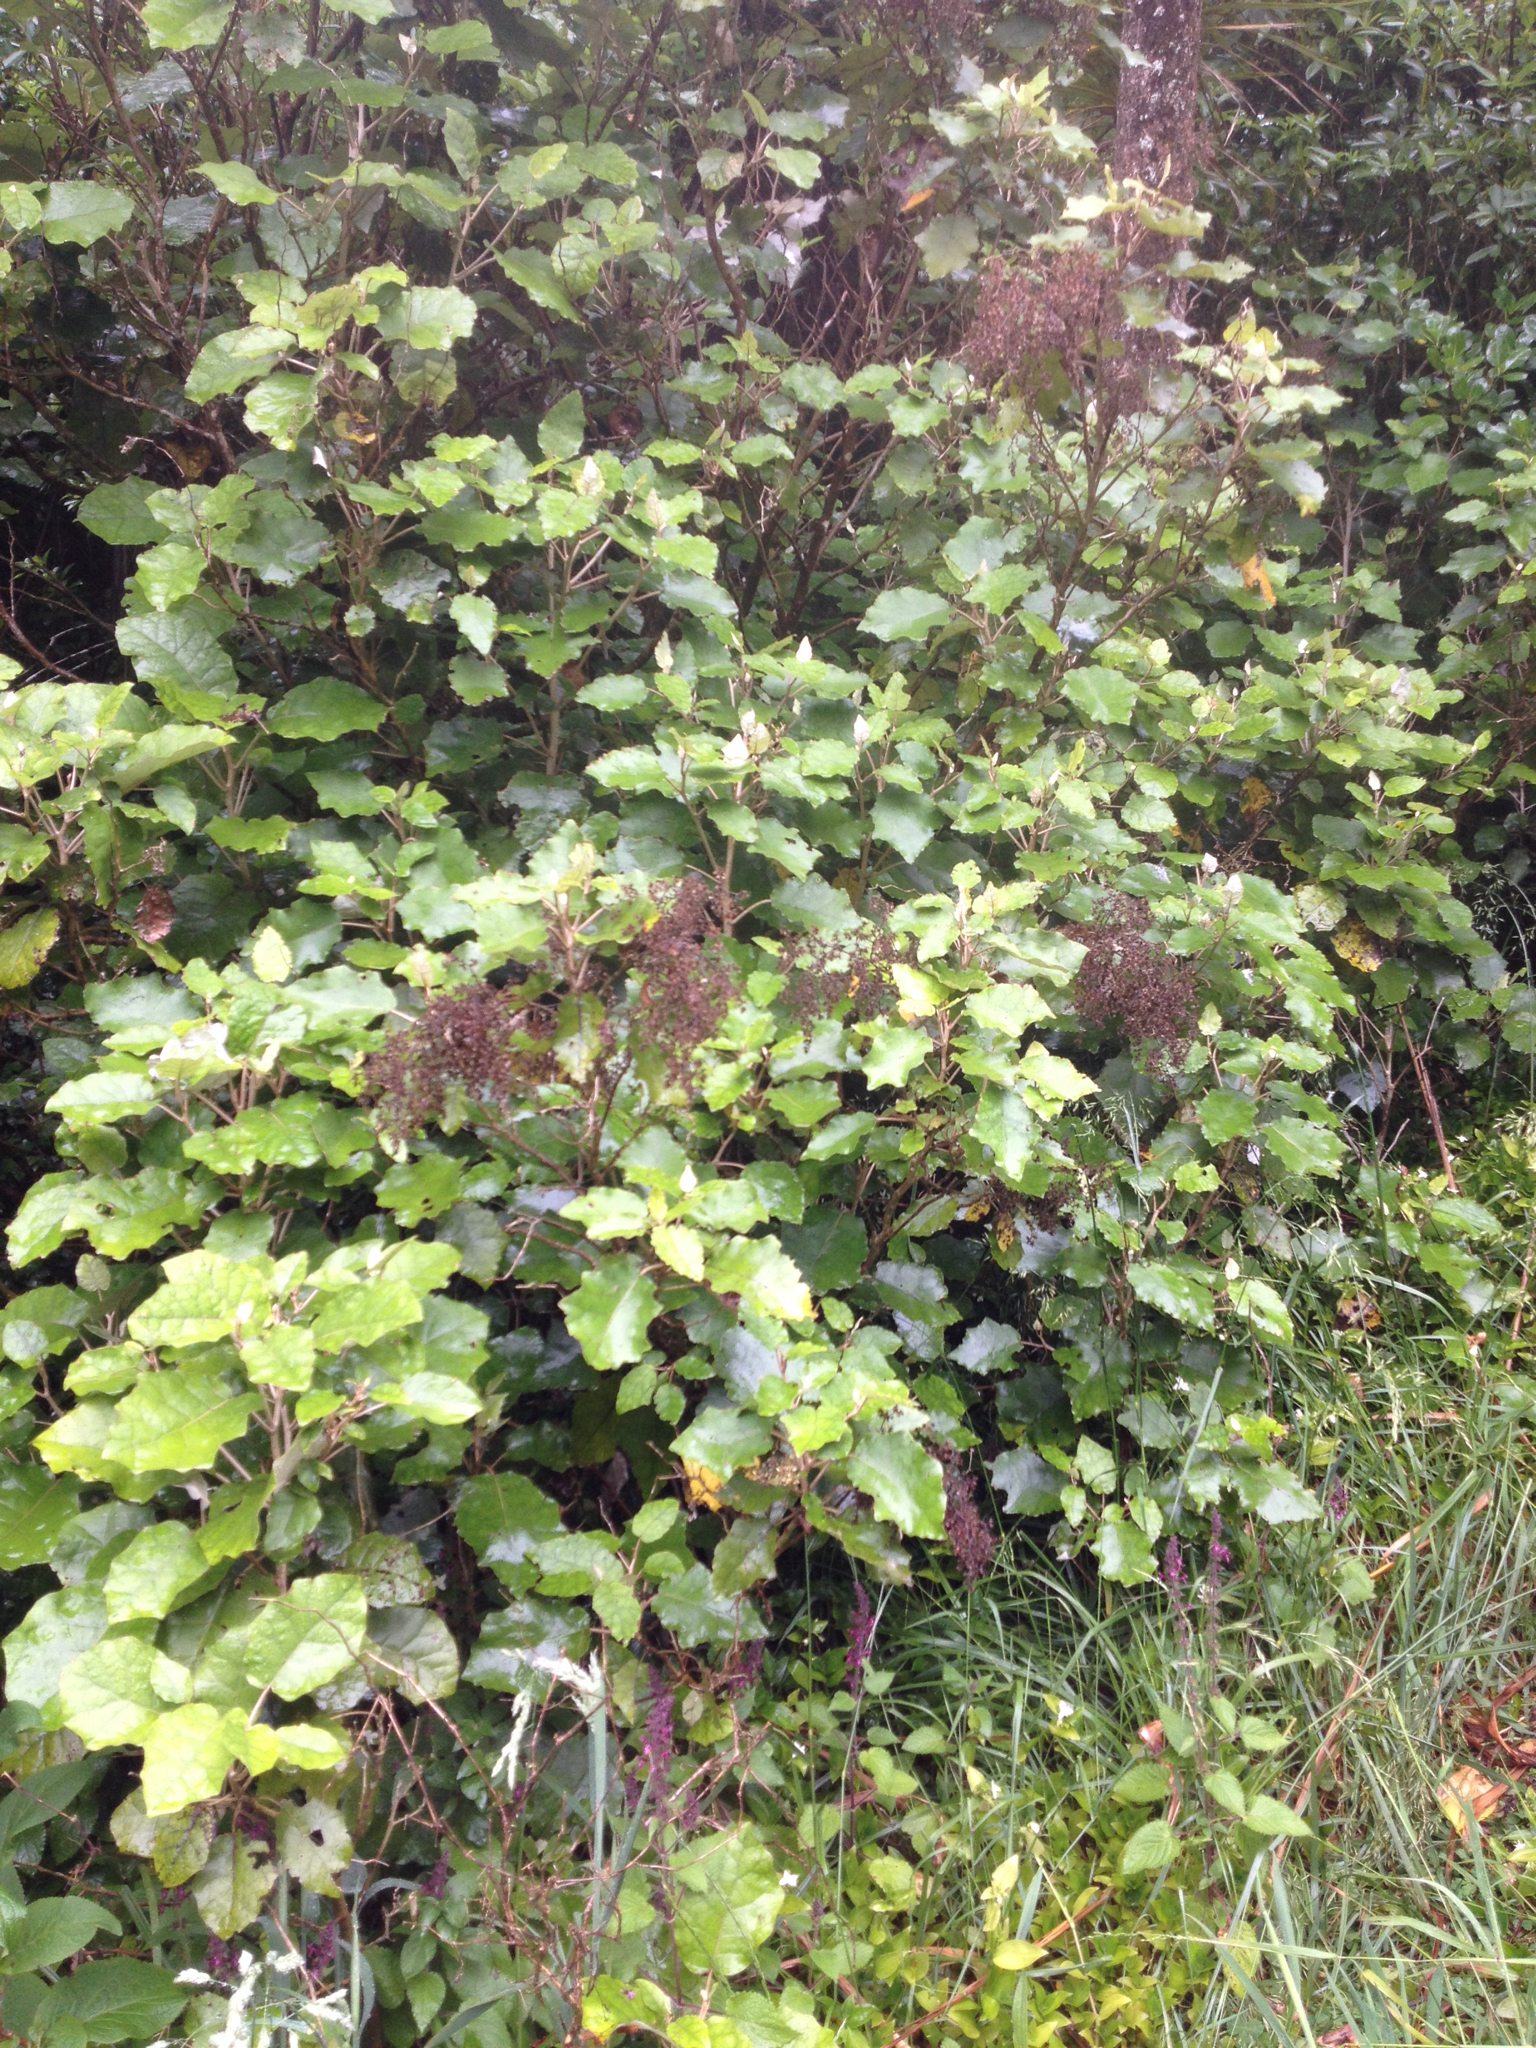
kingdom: Plantae
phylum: Tracheophyta
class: Magnoliopsida
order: Asterales
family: Asteraceae
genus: Brachyglottis
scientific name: Brachyglottis repanda
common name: Hedge ragwort
